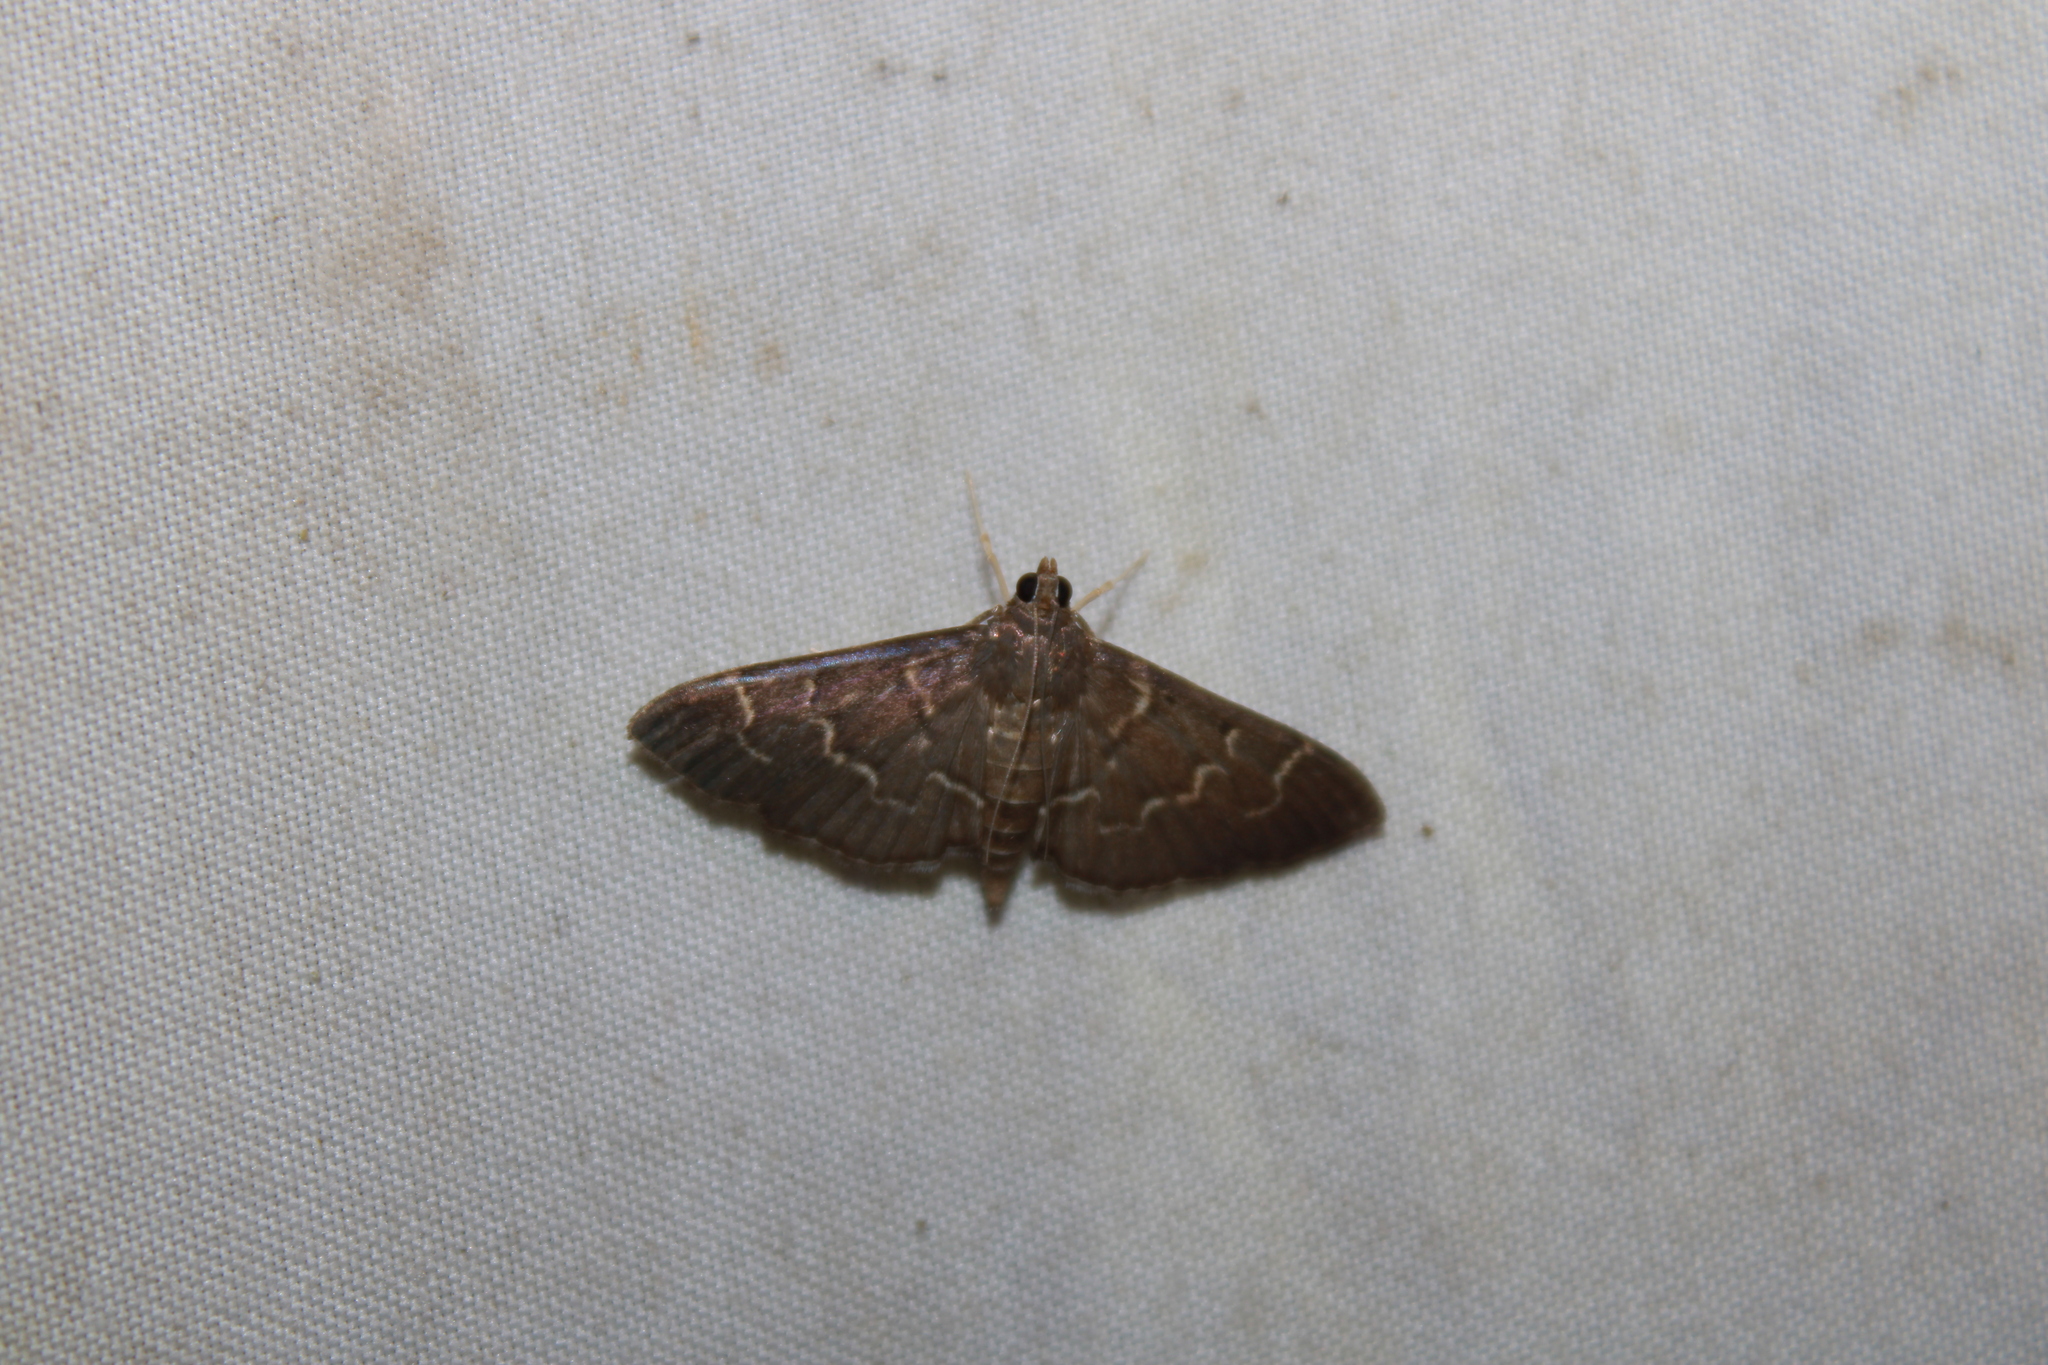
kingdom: Animalia
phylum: Arthropoda
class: Insecta
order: Lepidoptera
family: Crambidae
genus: Pilocrocis
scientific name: Pilocrocis ramentalis
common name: Scraped pilocrocis
